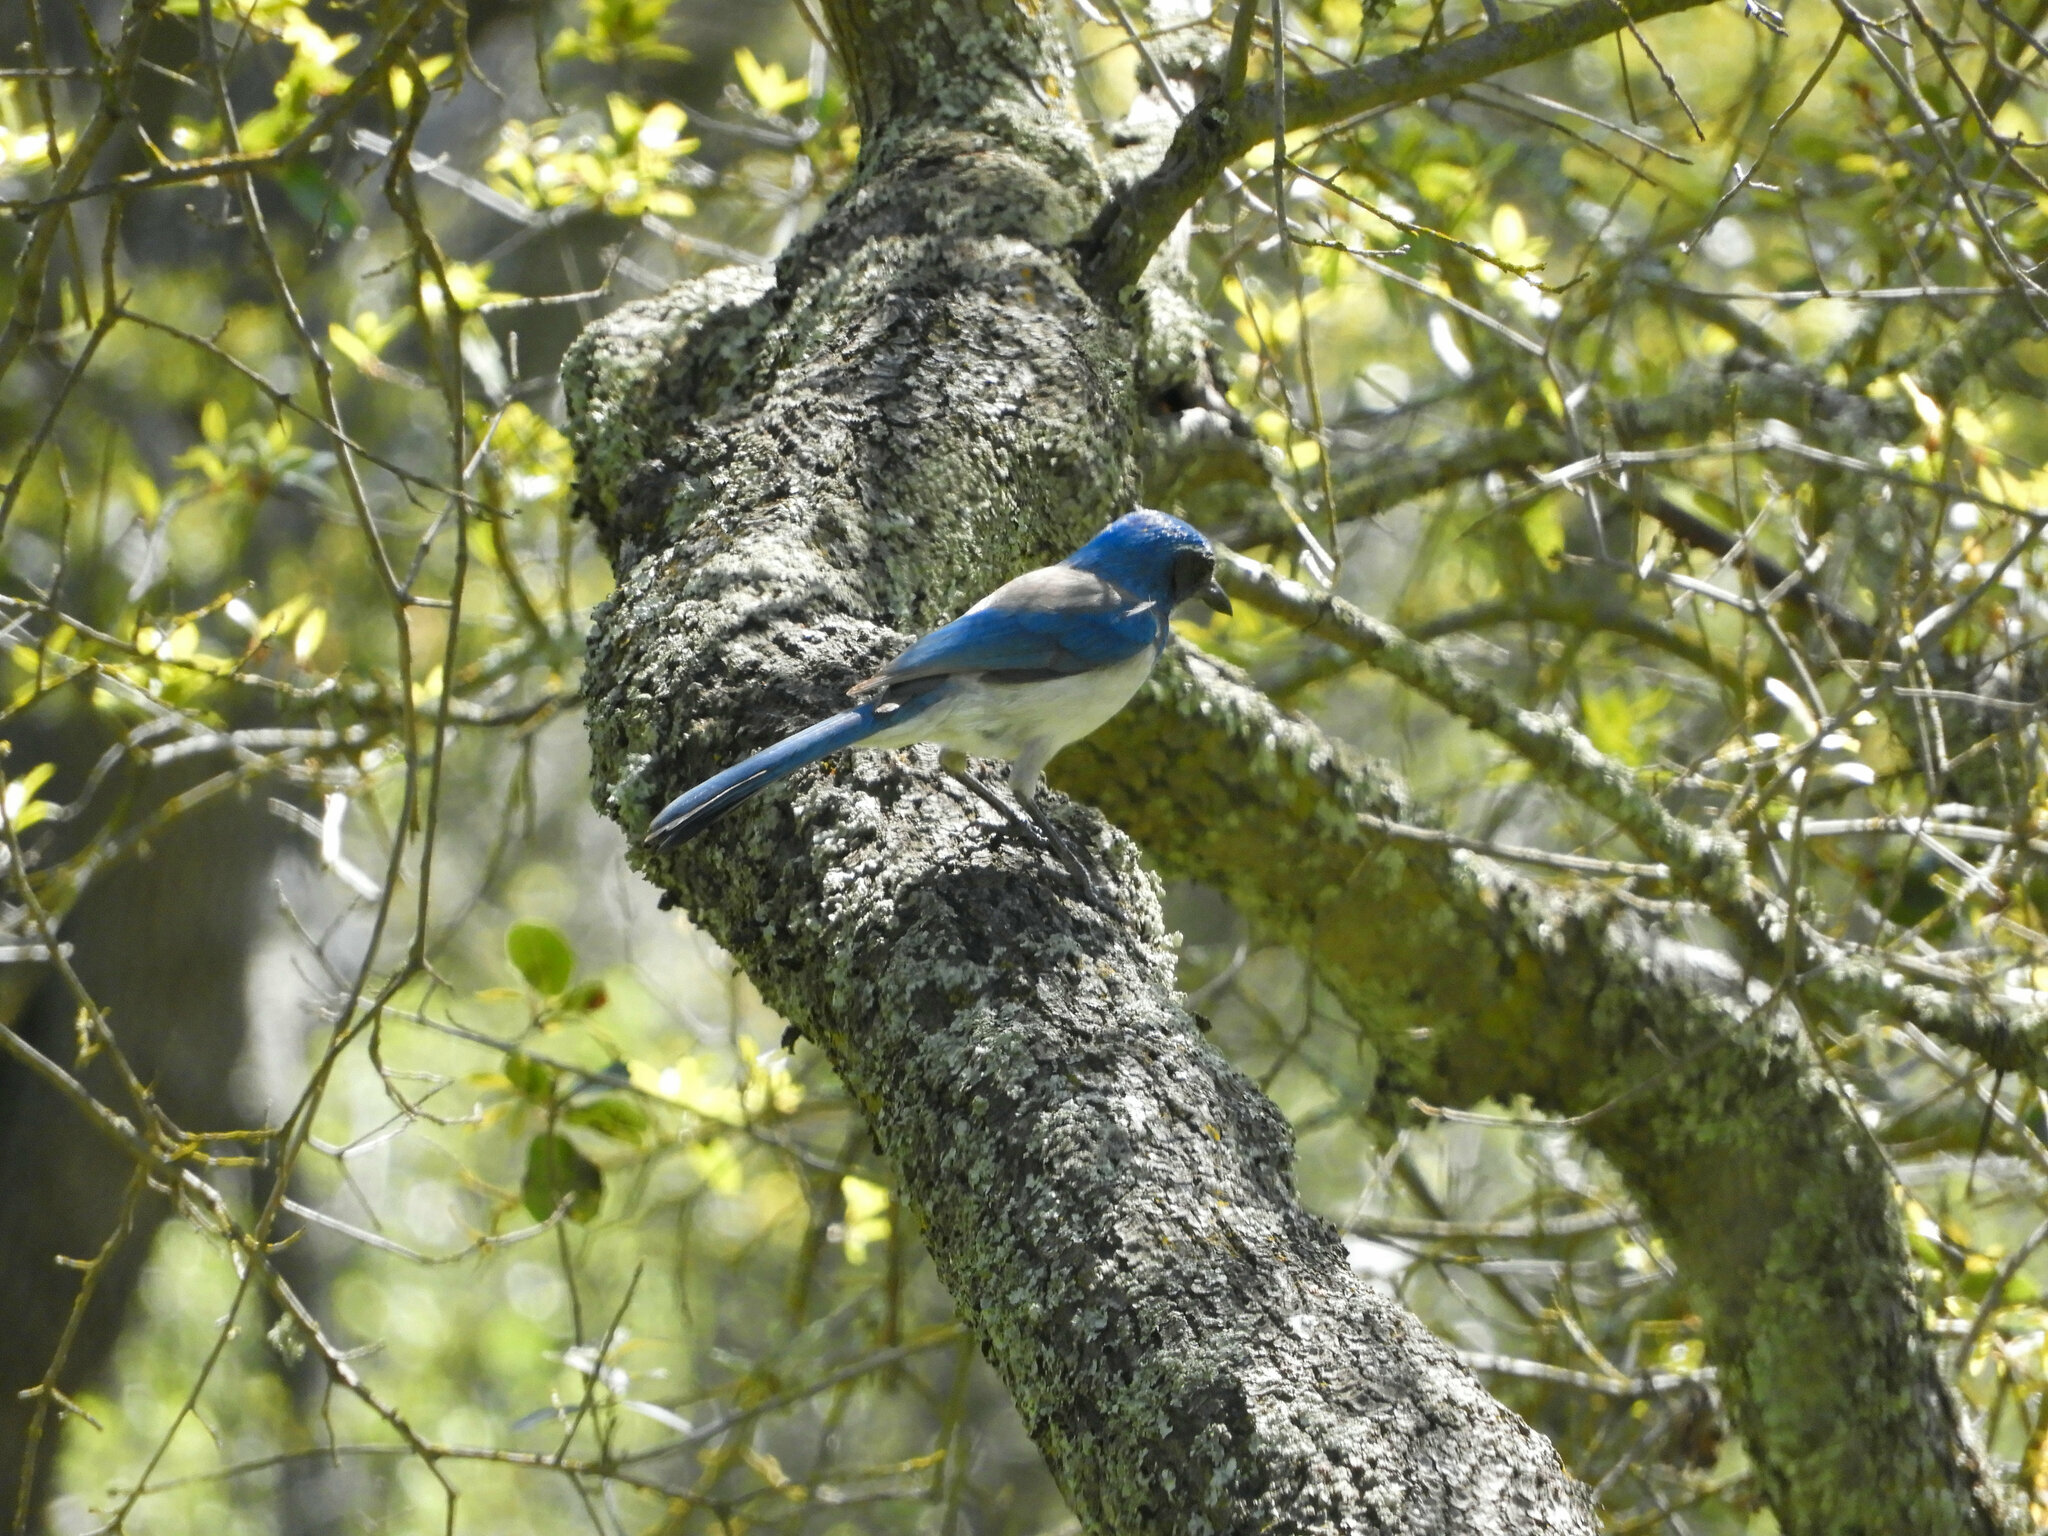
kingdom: Animalia
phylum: Chordata
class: Aves
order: Passeriformes
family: Corvidae
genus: Aphelocoma
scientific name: Aphelocoma californica
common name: California scrub-jay
